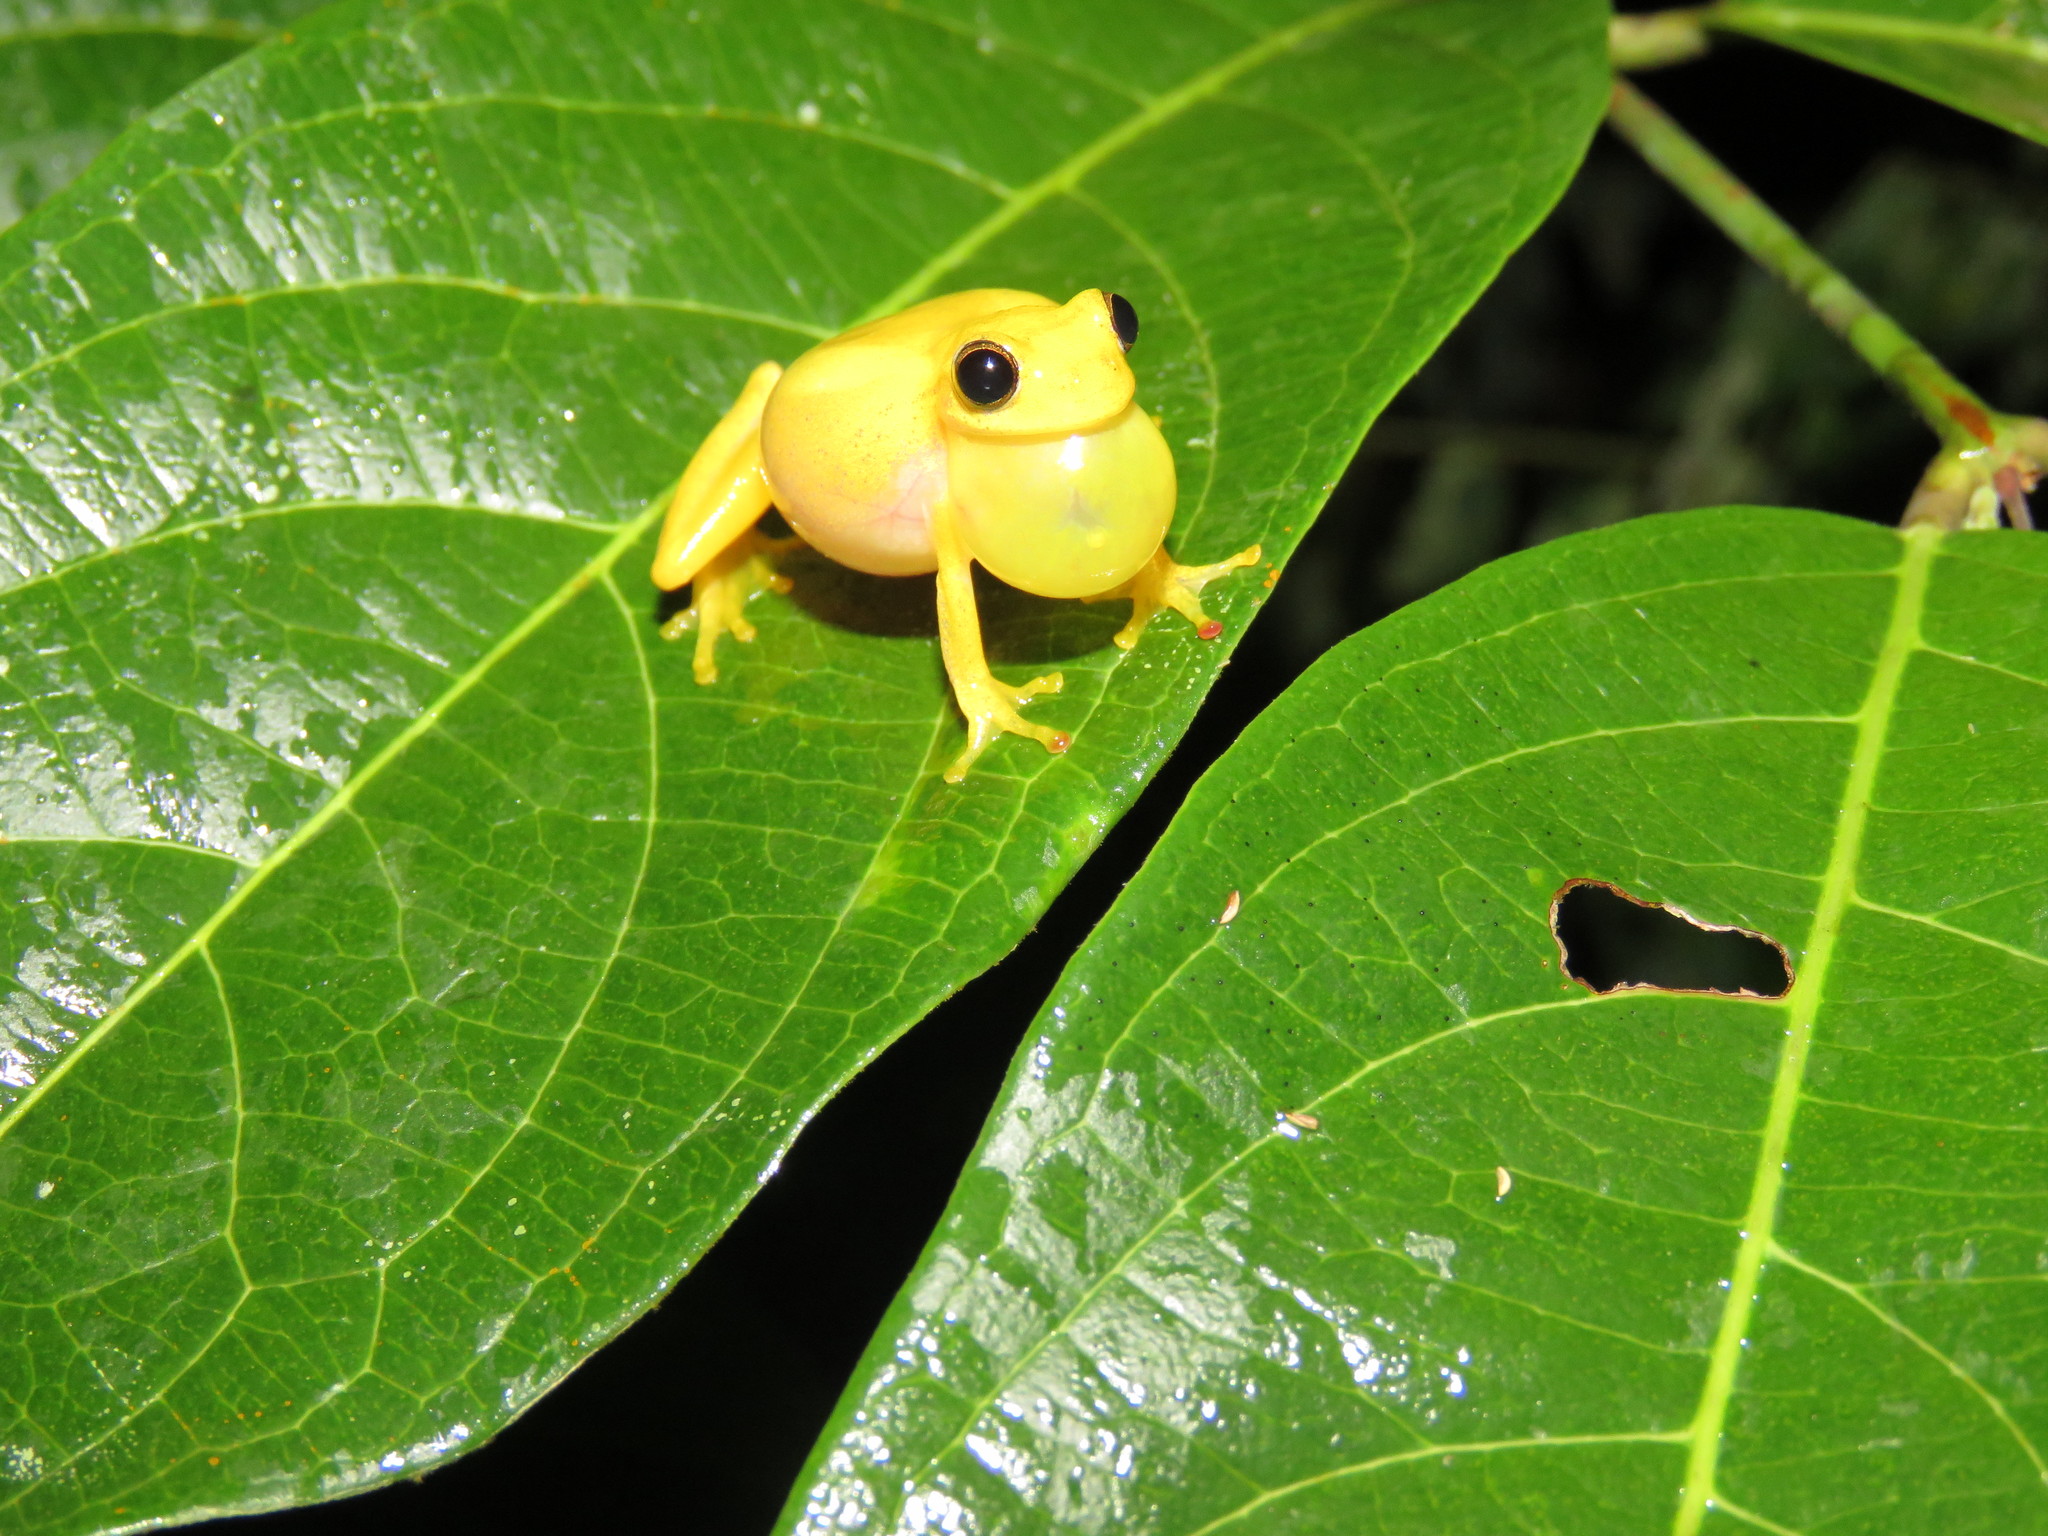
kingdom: Animalia
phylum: Chordata
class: Amphibia
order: Anura
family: Hylidae
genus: Dendropsophus
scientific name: Dendropsophus leali
